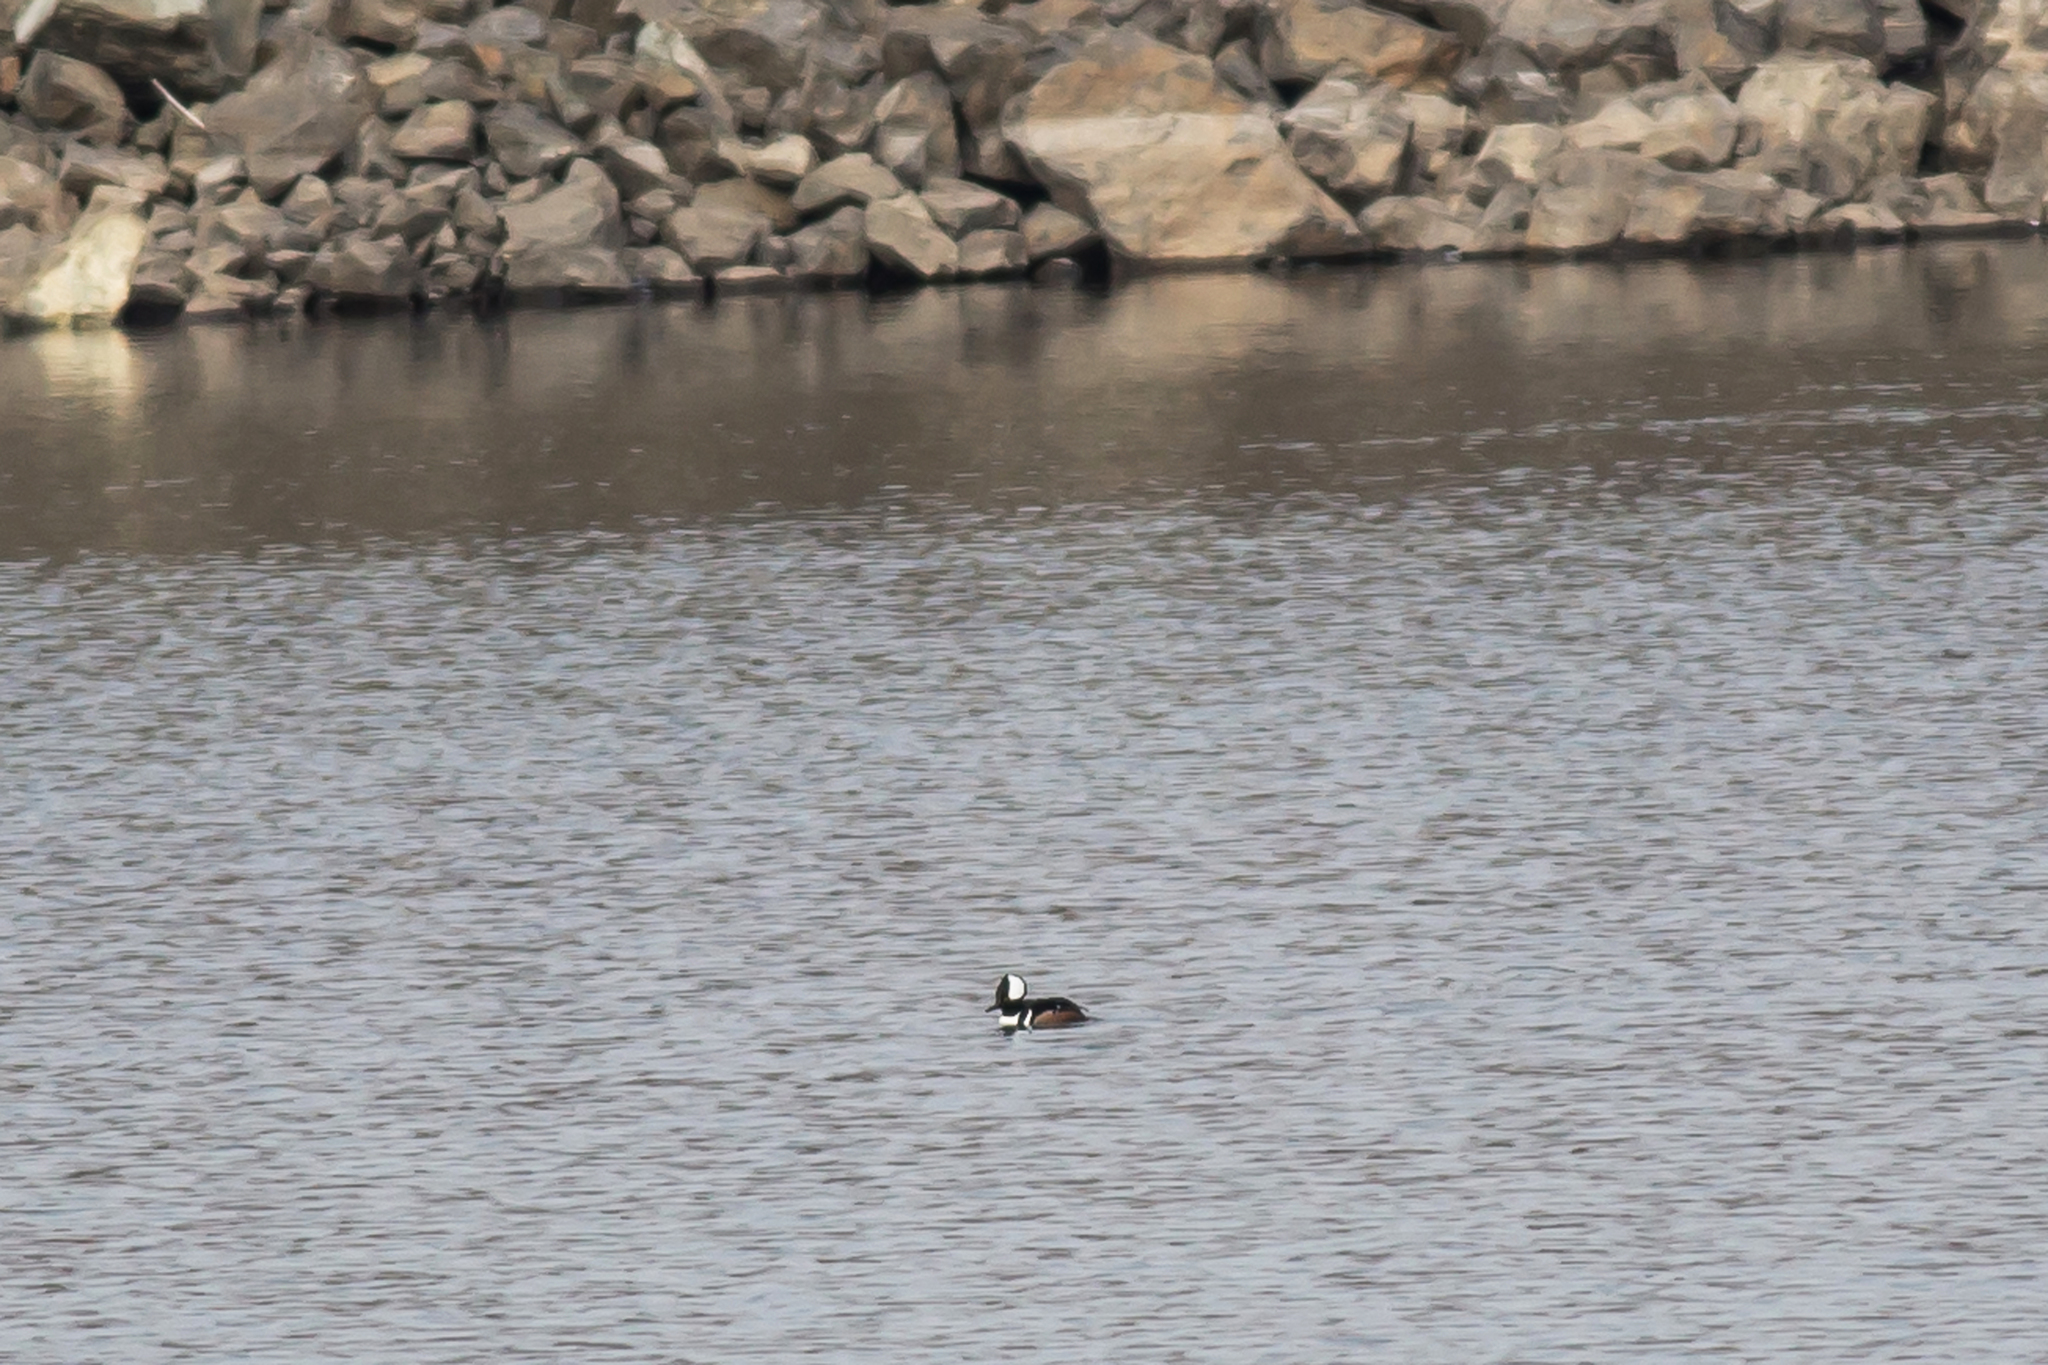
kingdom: Animalia
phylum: Chordata
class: Aves
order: Anseriformes
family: Anatidae
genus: Lophodytes
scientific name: Lophodytes cucullatus
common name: Hooded merganser
